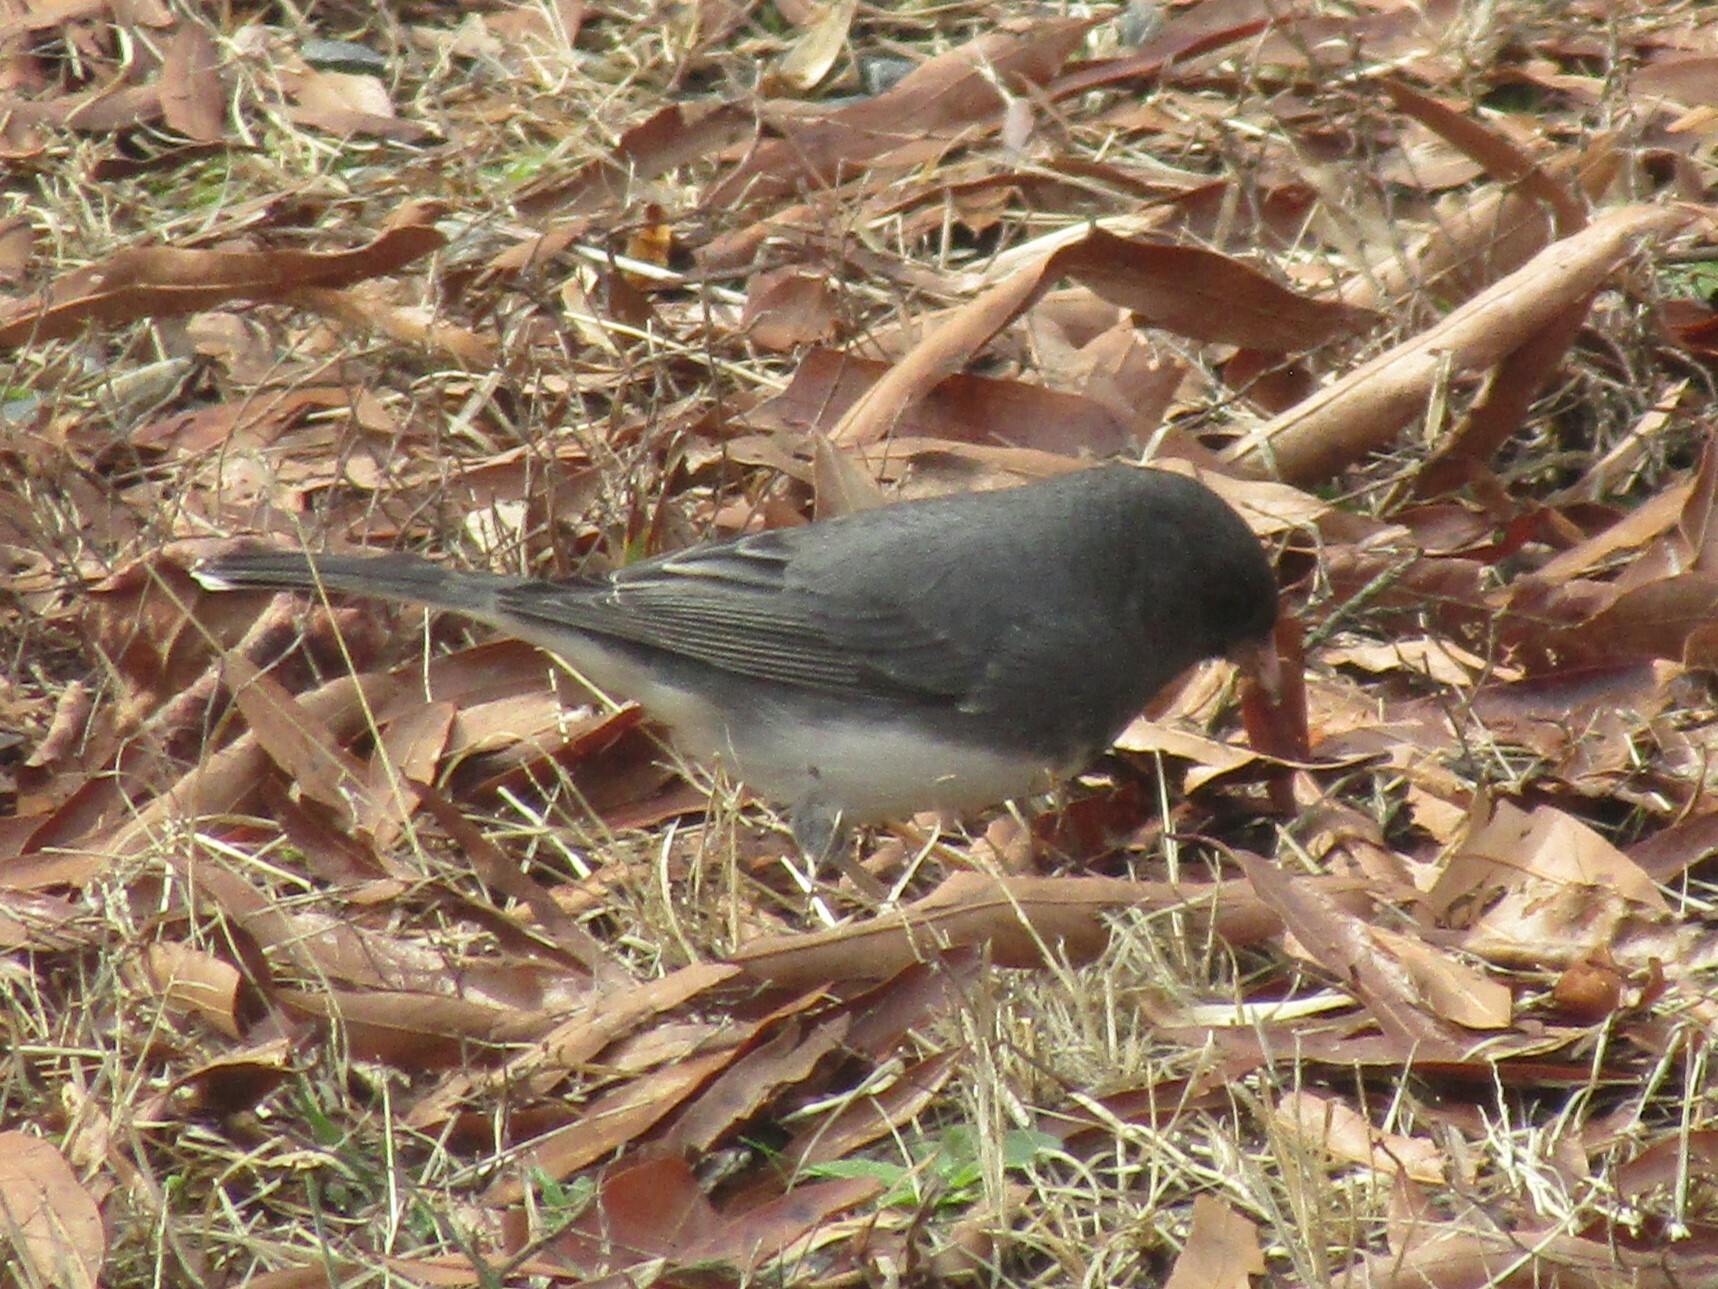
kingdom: Animalia
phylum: Chordata
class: Aves
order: Passeriformes
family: Passerellidae
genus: Junco
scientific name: Junco hyemalis
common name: Dark-eyed junco
